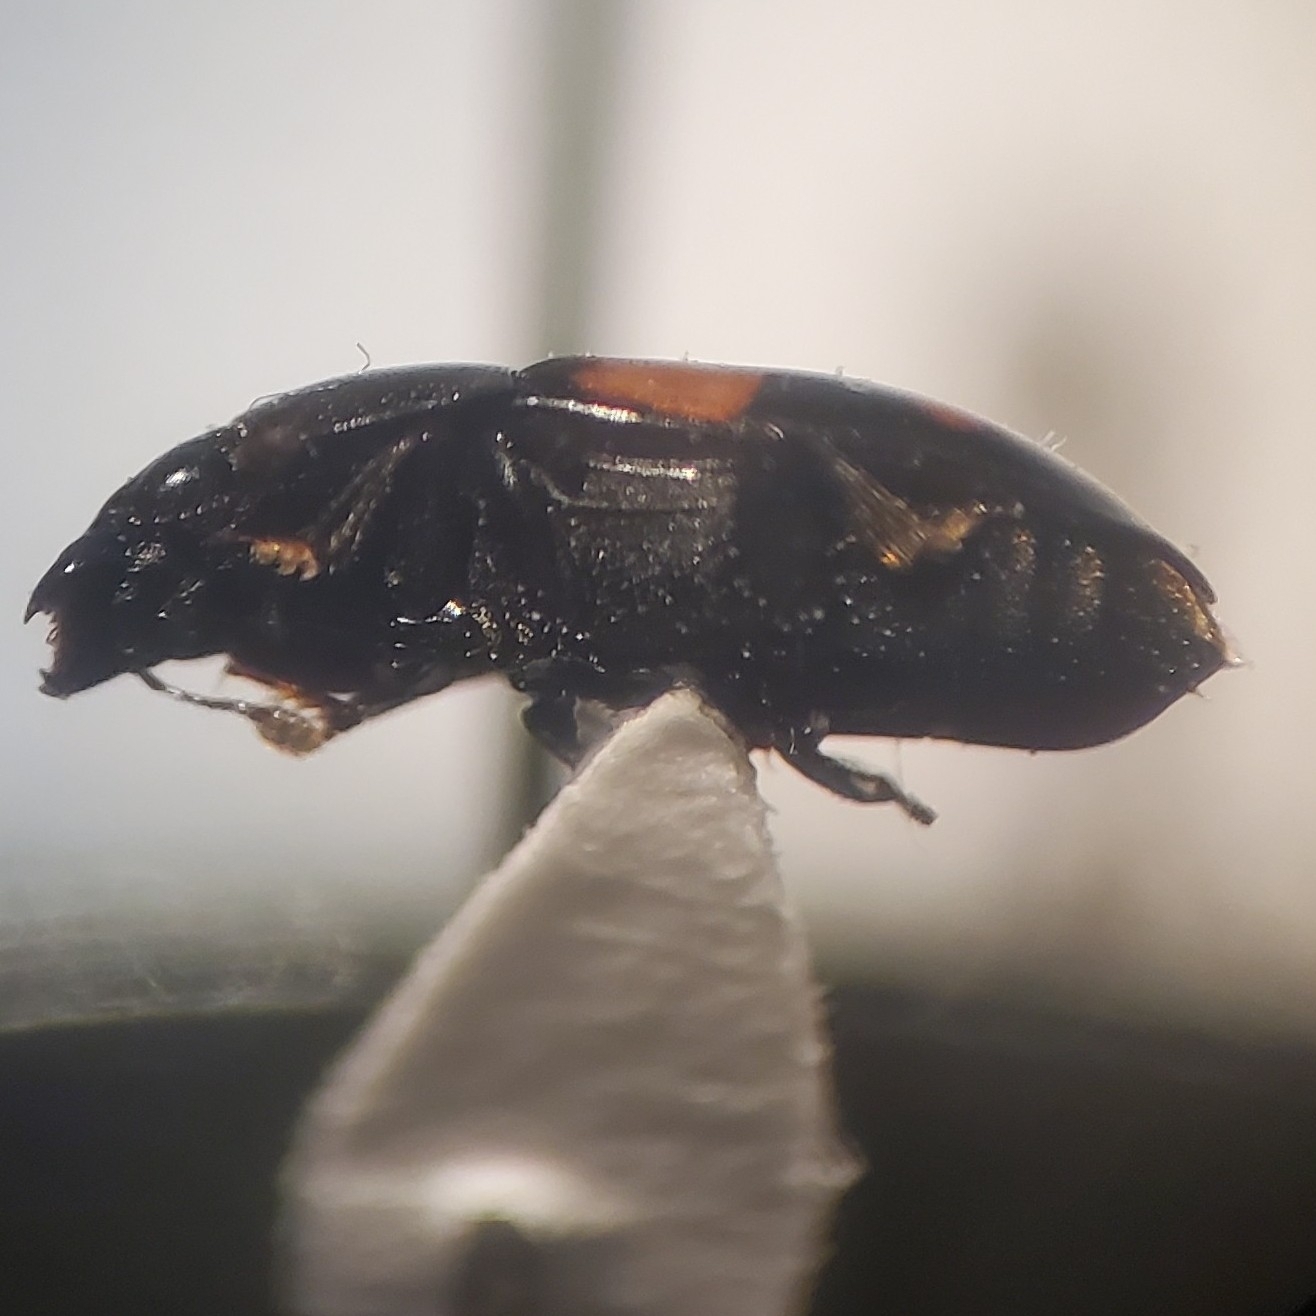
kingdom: Animalia
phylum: Arthropoda
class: Insecta
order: Coleoptera
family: Nitidulidae
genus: Glischrochilus
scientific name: Glischrochilus fasciatus
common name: Picnic beetle
